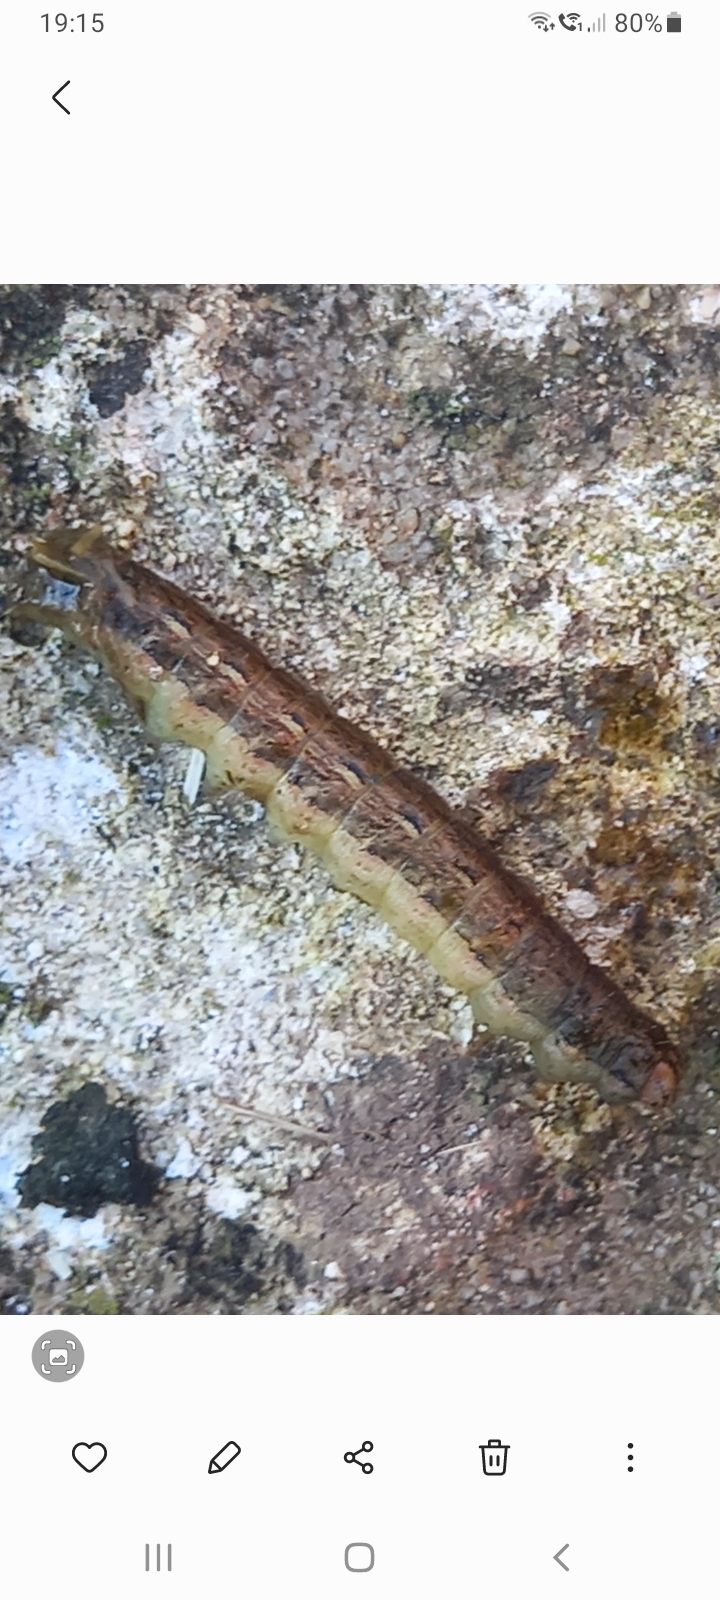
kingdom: Animalia
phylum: Arthropoda
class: Insecta
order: Lepidoptera
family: Noctuidae
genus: Noctua
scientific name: Noctua pronuba
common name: Large yellow underwing
